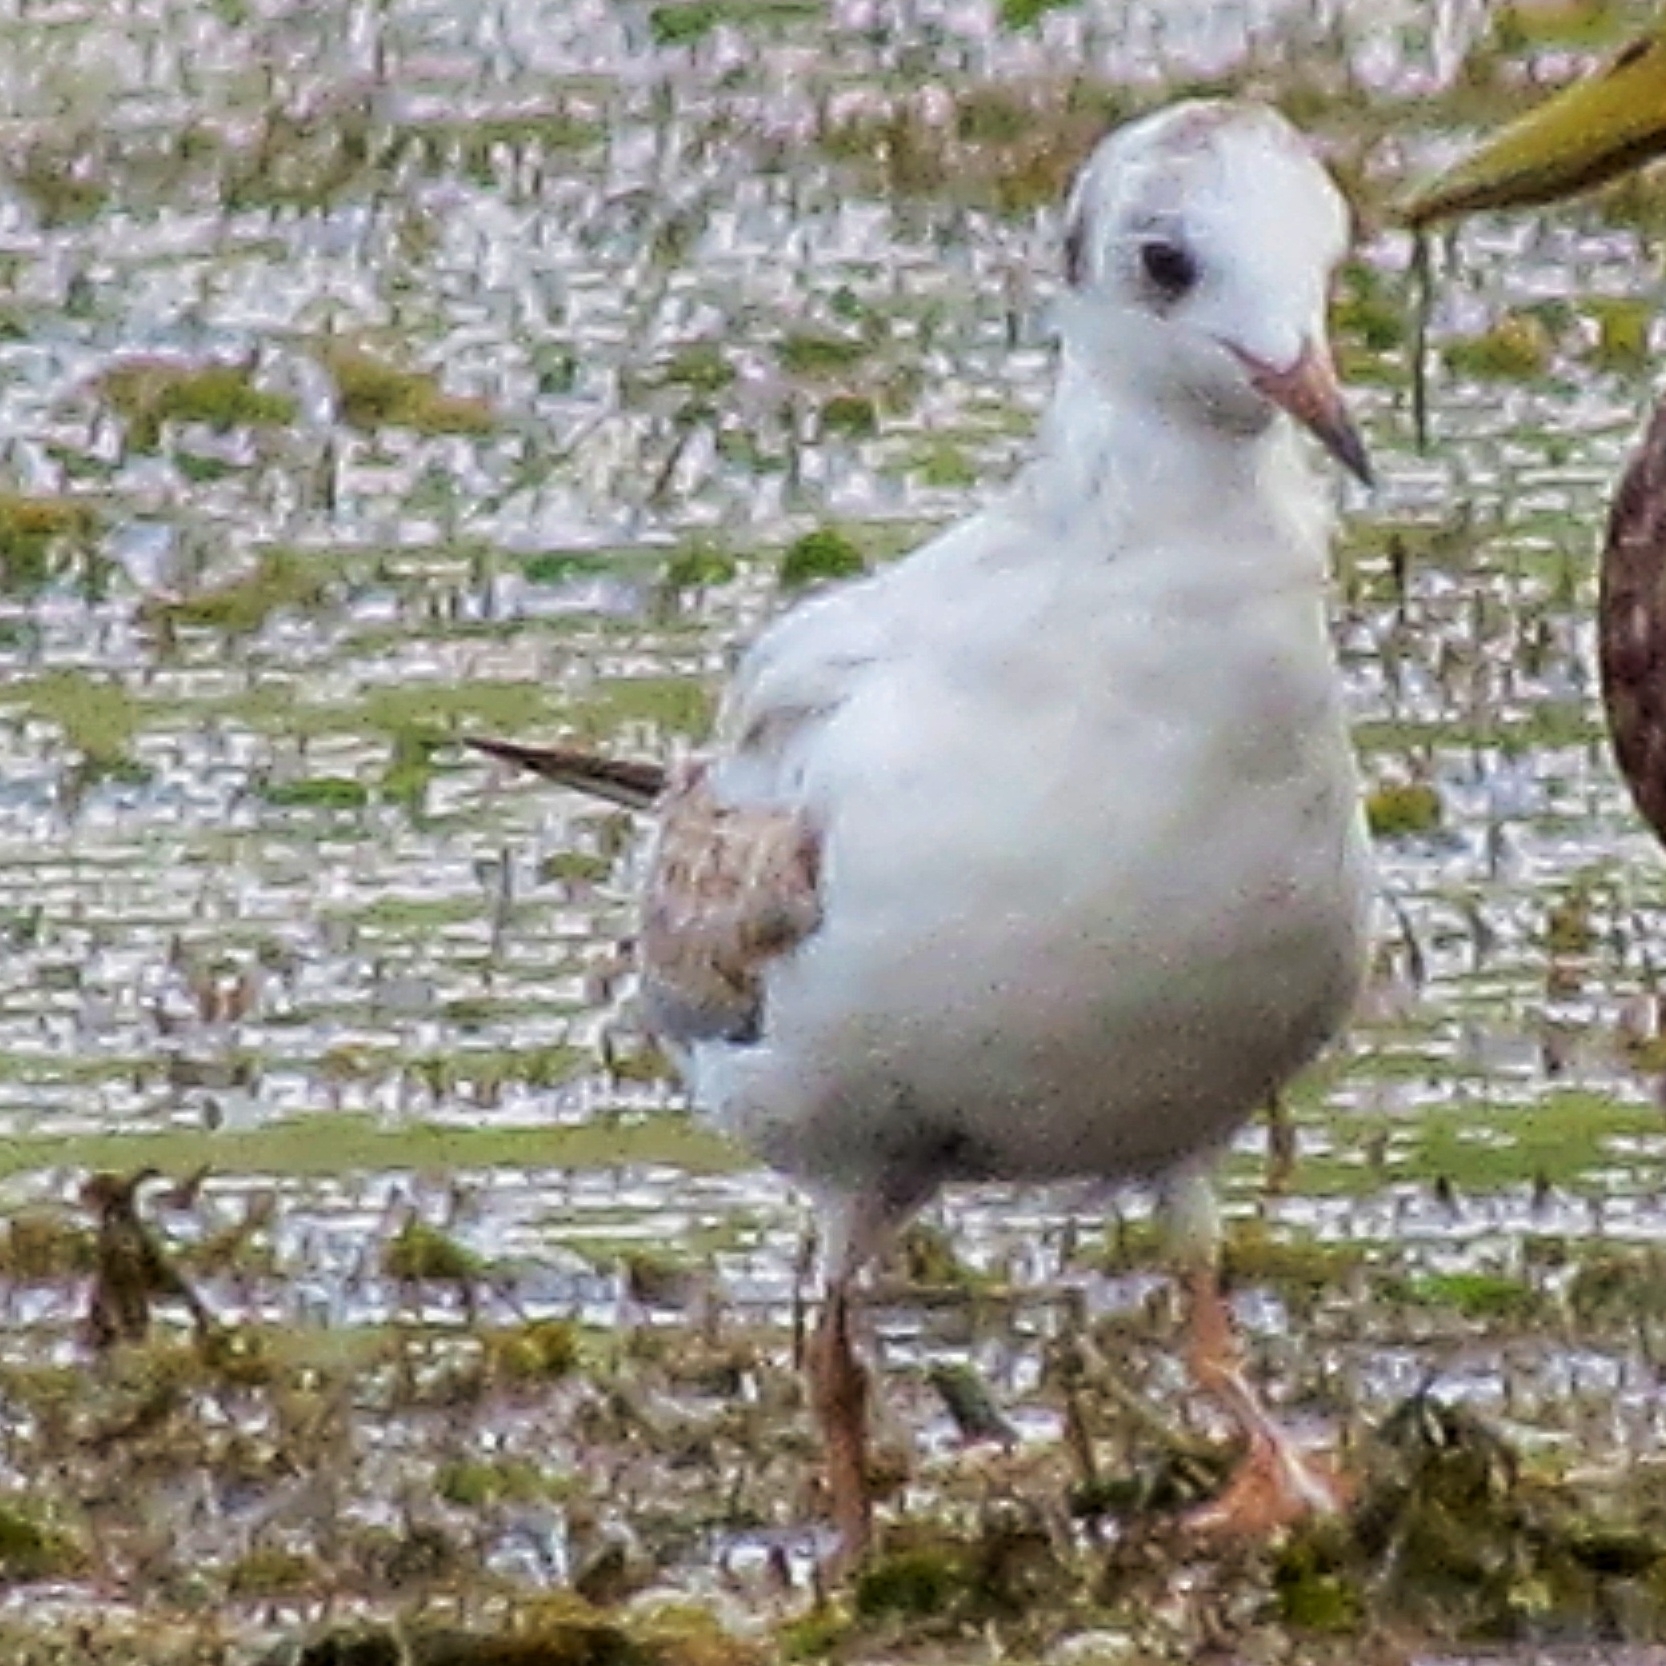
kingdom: Animalia
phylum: Chordata
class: Aves
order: Charadriiformes
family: Laridae
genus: Chroicocephalus
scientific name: Chroicocephalus ridibundus
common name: Black-headed gull
